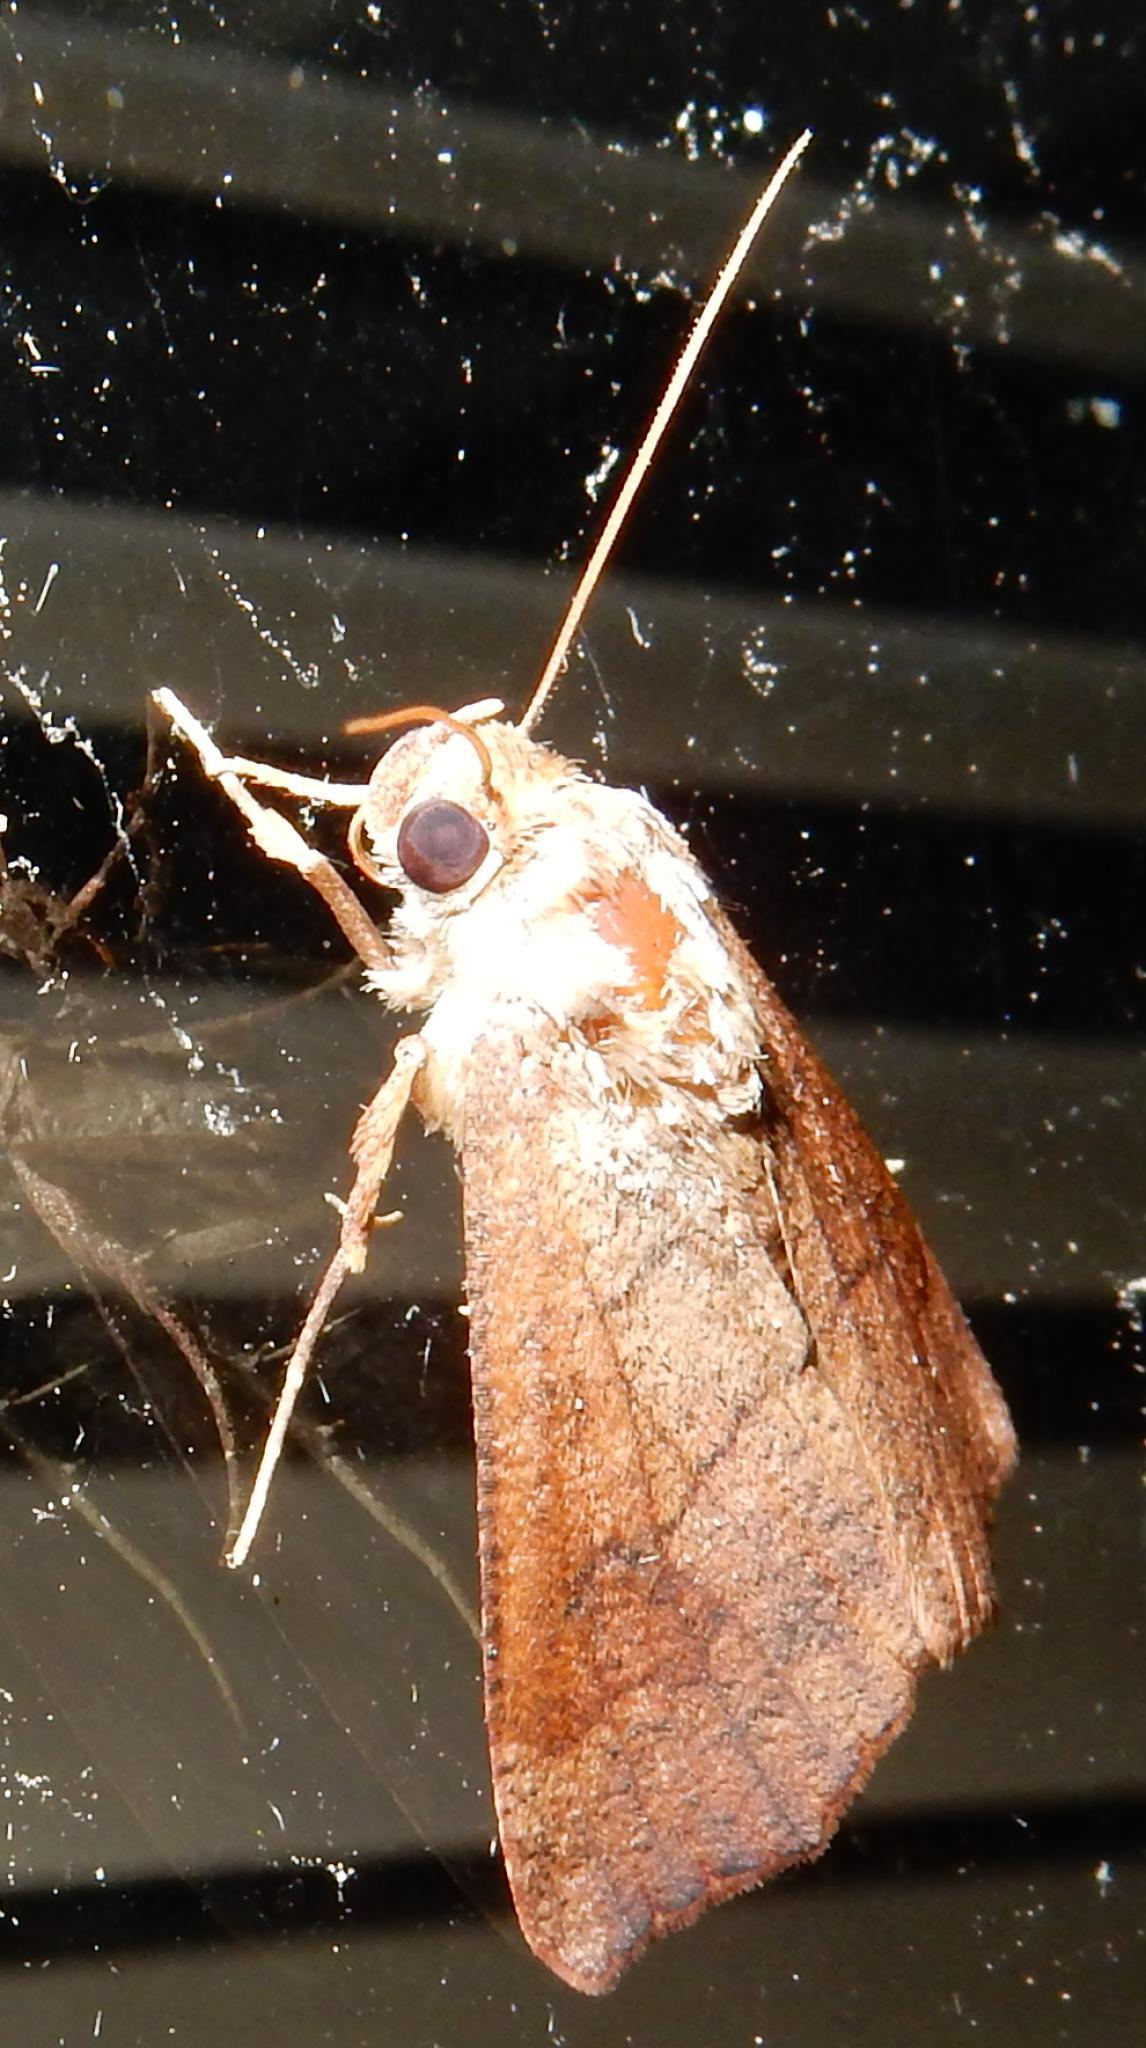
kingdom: Animalia
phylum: Arthropoda
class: Insecta
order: Lepidoptera
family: Erebidae
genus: Anomis
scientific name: Anomis sabulifera
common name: Angled gem
